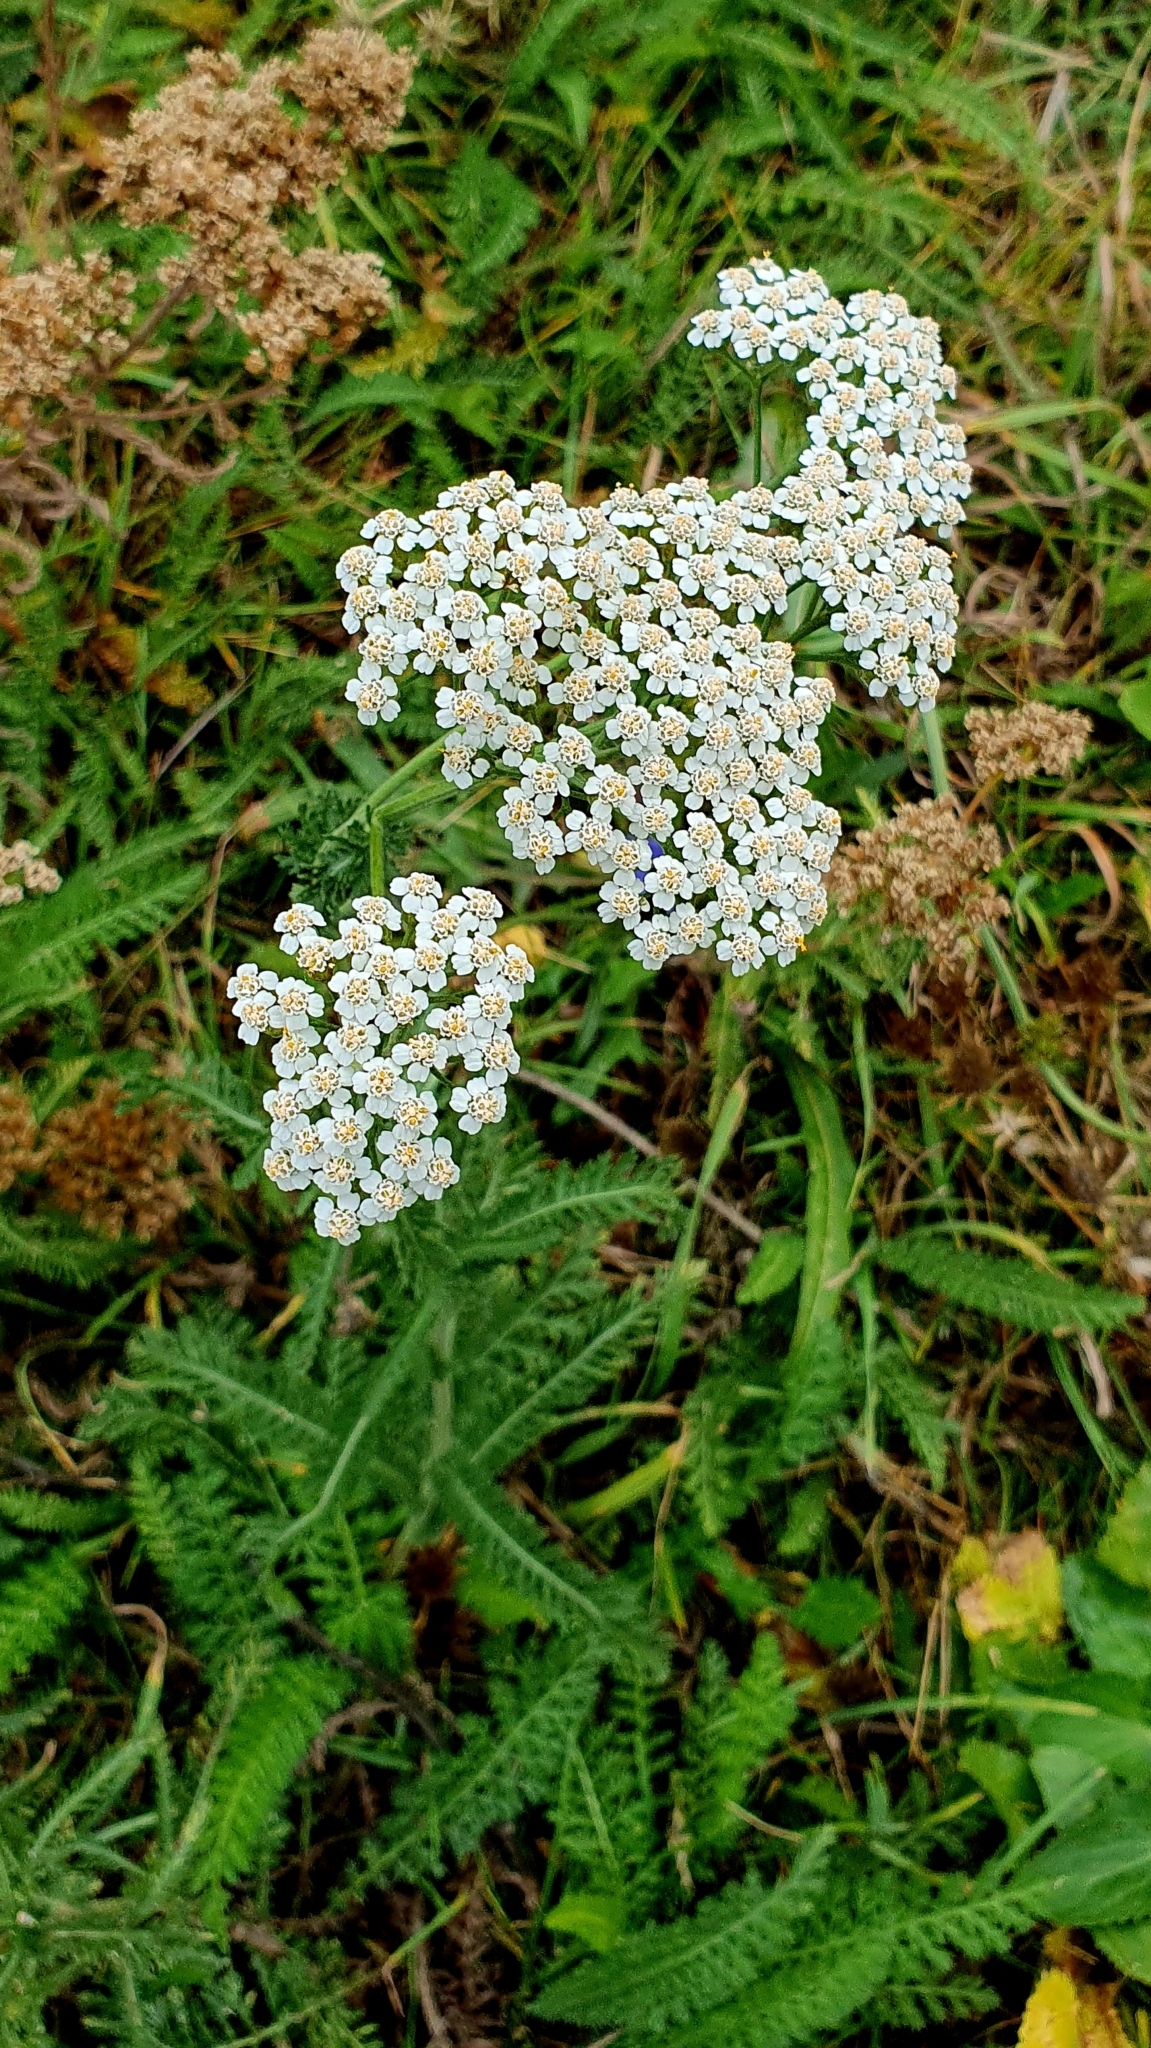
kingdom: Plantae
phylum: Tracheophyta
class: Magnoliopsida
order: Asterales
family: Asteraceae
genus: Achillea
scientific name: Achillea millefolium
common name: Yarrow
